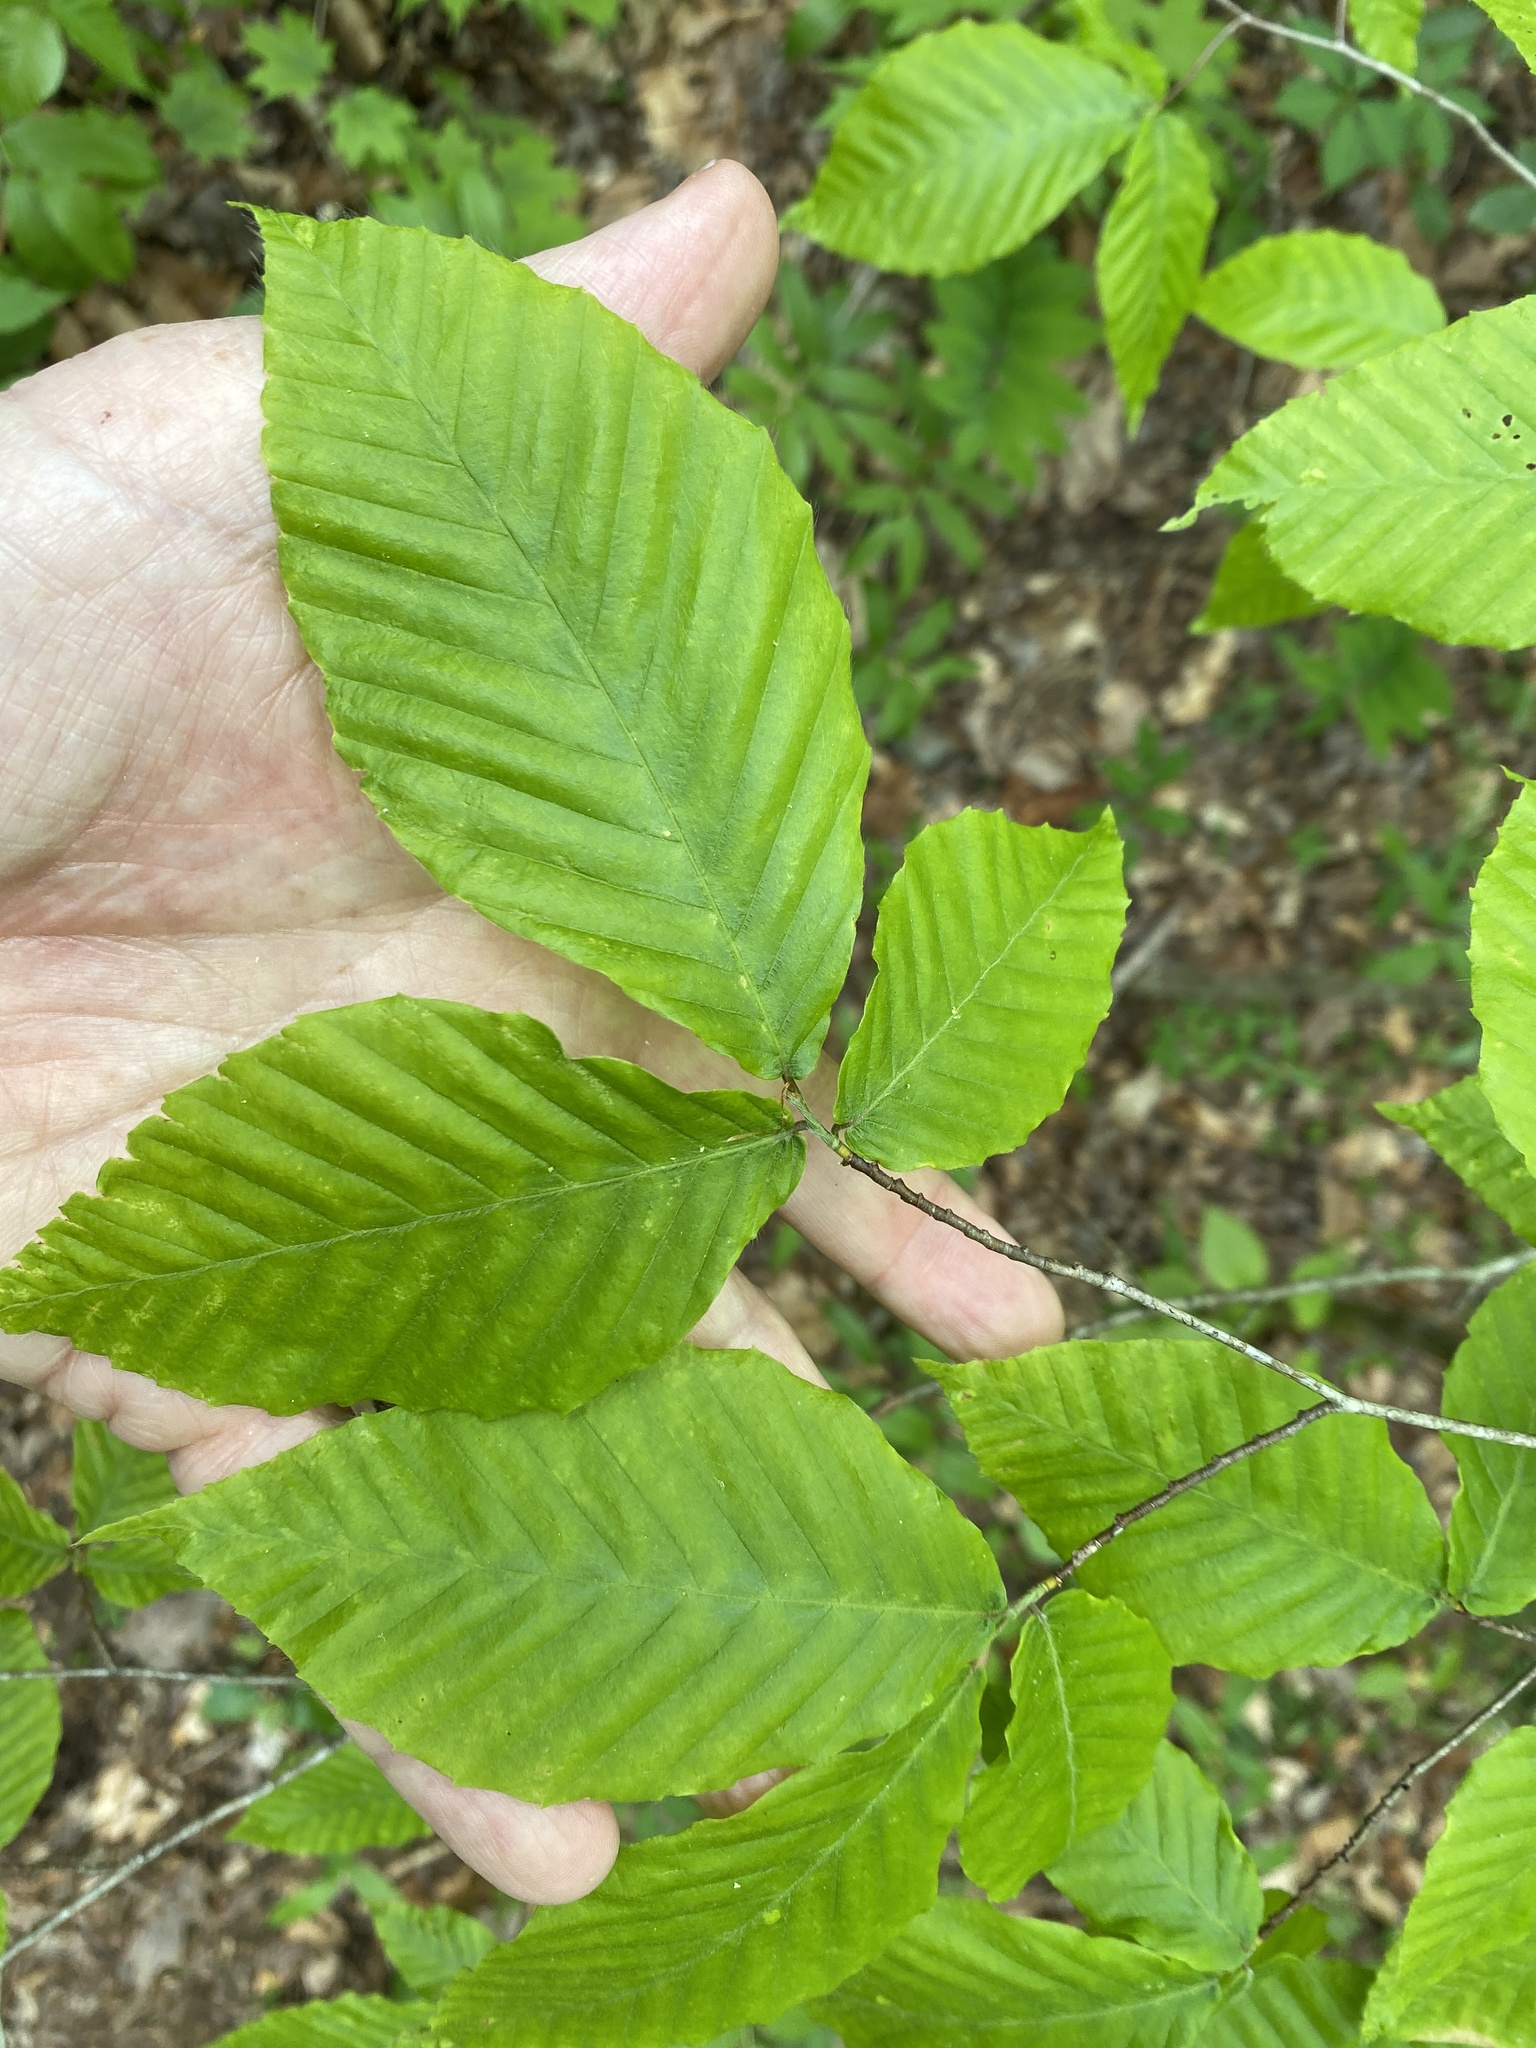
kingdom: Plantae
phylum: Tracheophyta
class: Magnoliopsida
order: Fagales
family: Fagaceae
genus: Fagus
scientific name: Fagus grandifolia
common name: American beech
